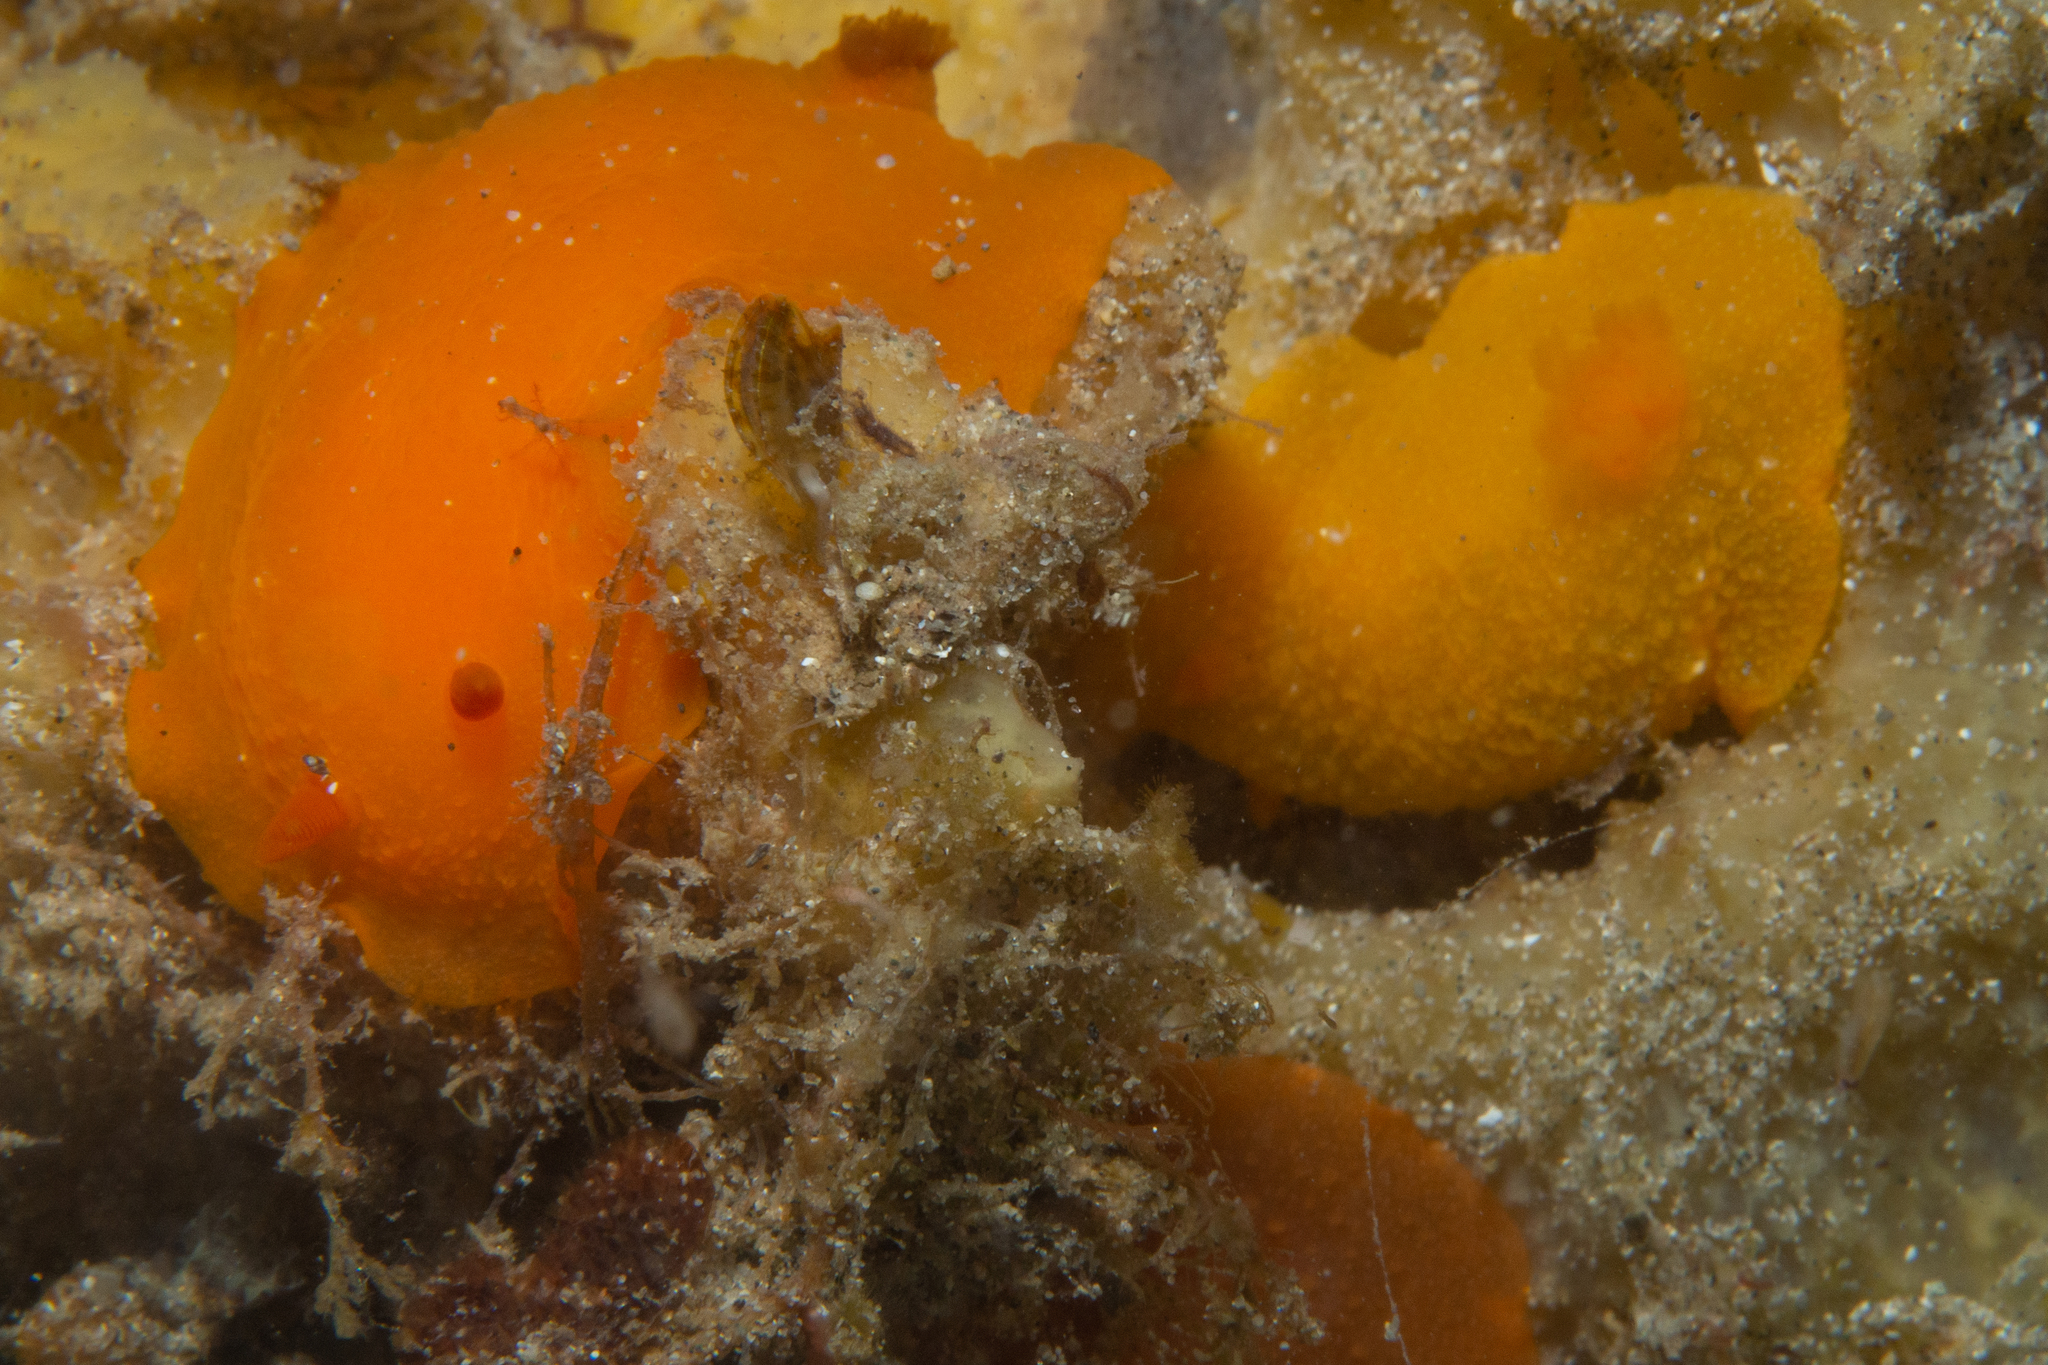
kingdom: Animalia
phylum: Mollusca
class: Gastropoda
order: Nudibranchia
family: Dendrodorididae
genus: Doriopsilla
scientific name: Doriopsilla aurea
